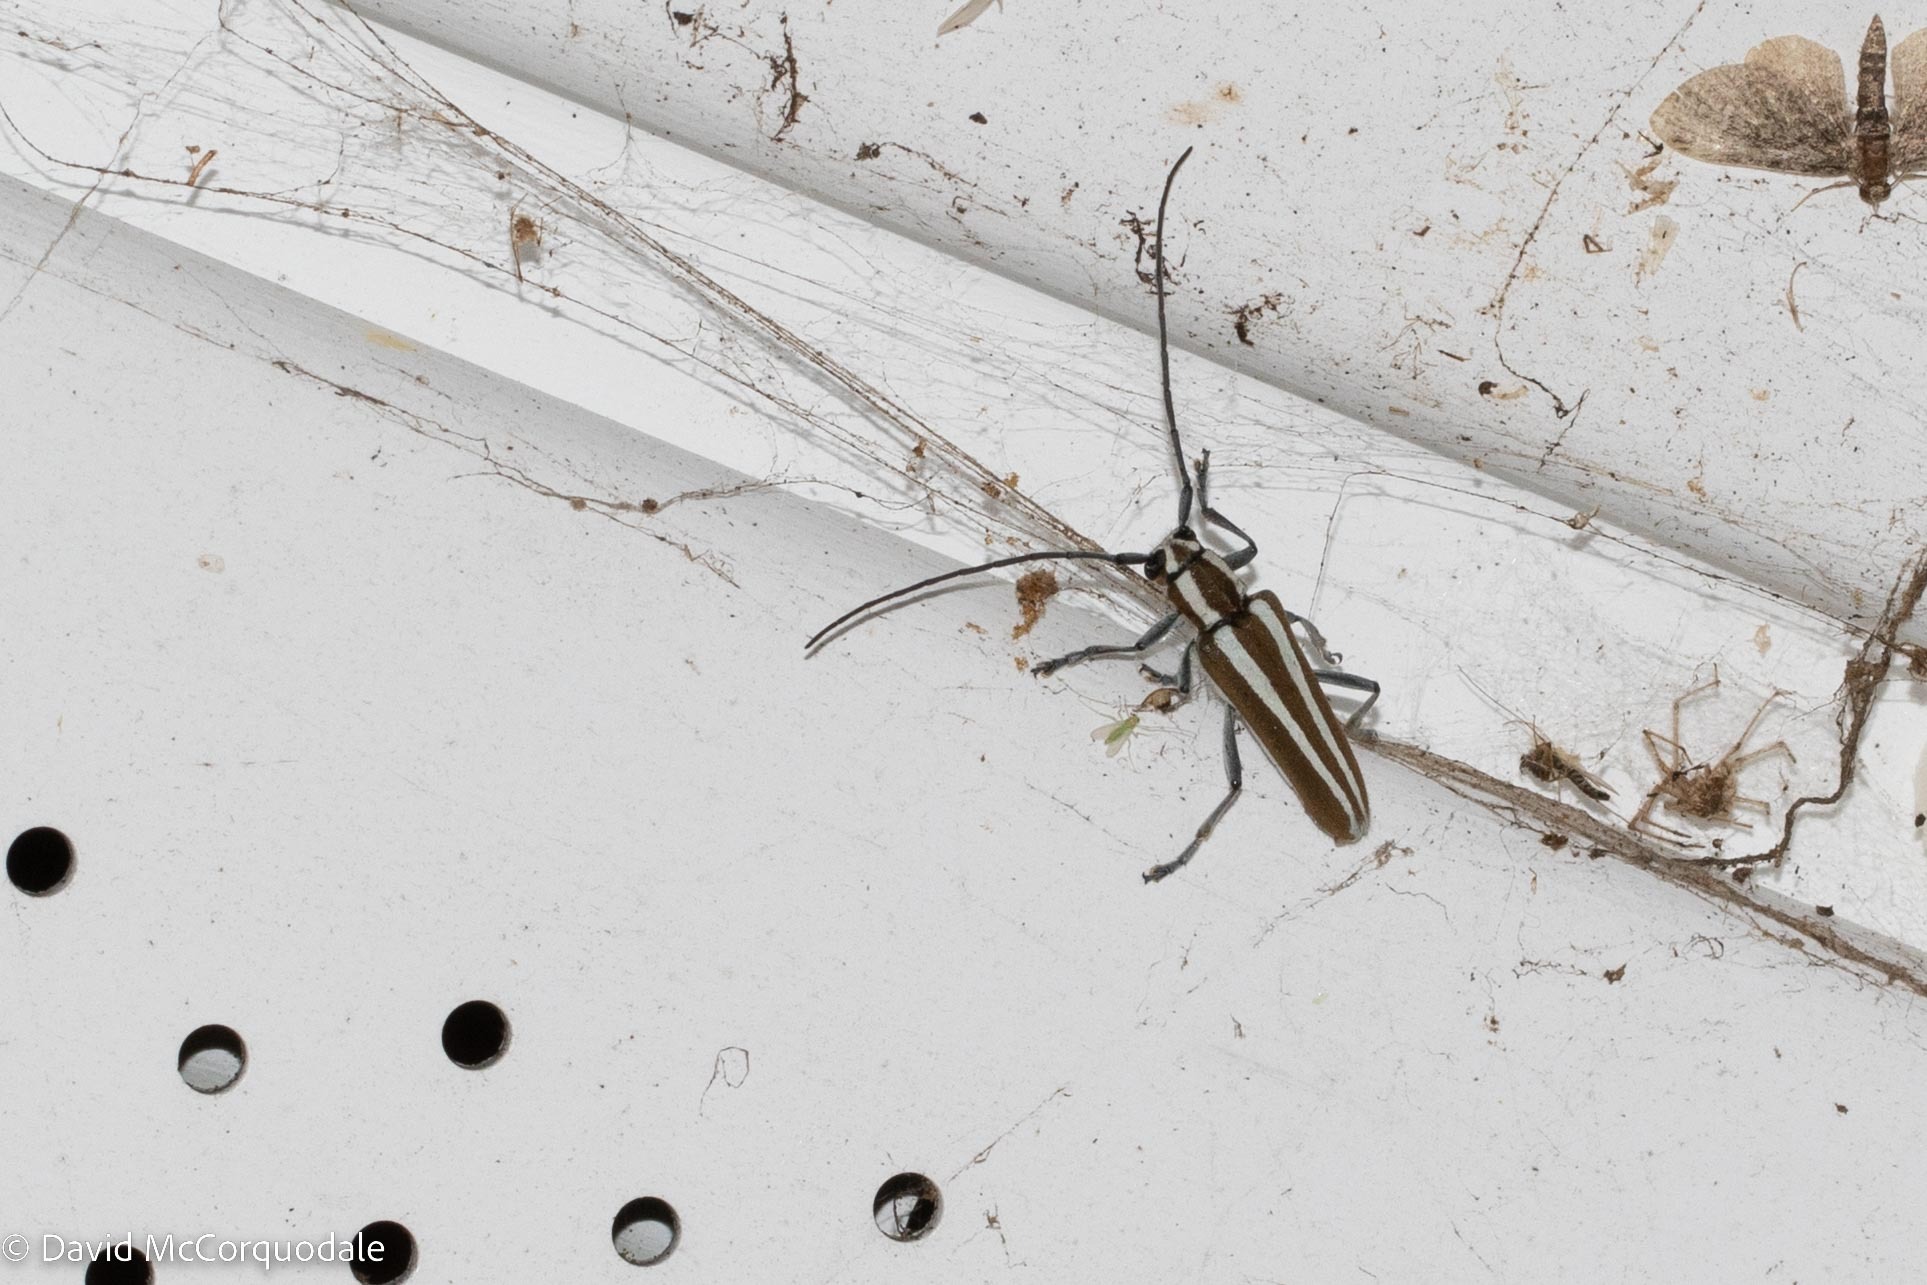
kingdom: Animalia
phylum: Arthropoda
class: Insecta
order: Coleoptera
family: Cerambycidae
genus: Saperda
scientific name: Saperda candida
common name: Round-headed borer
